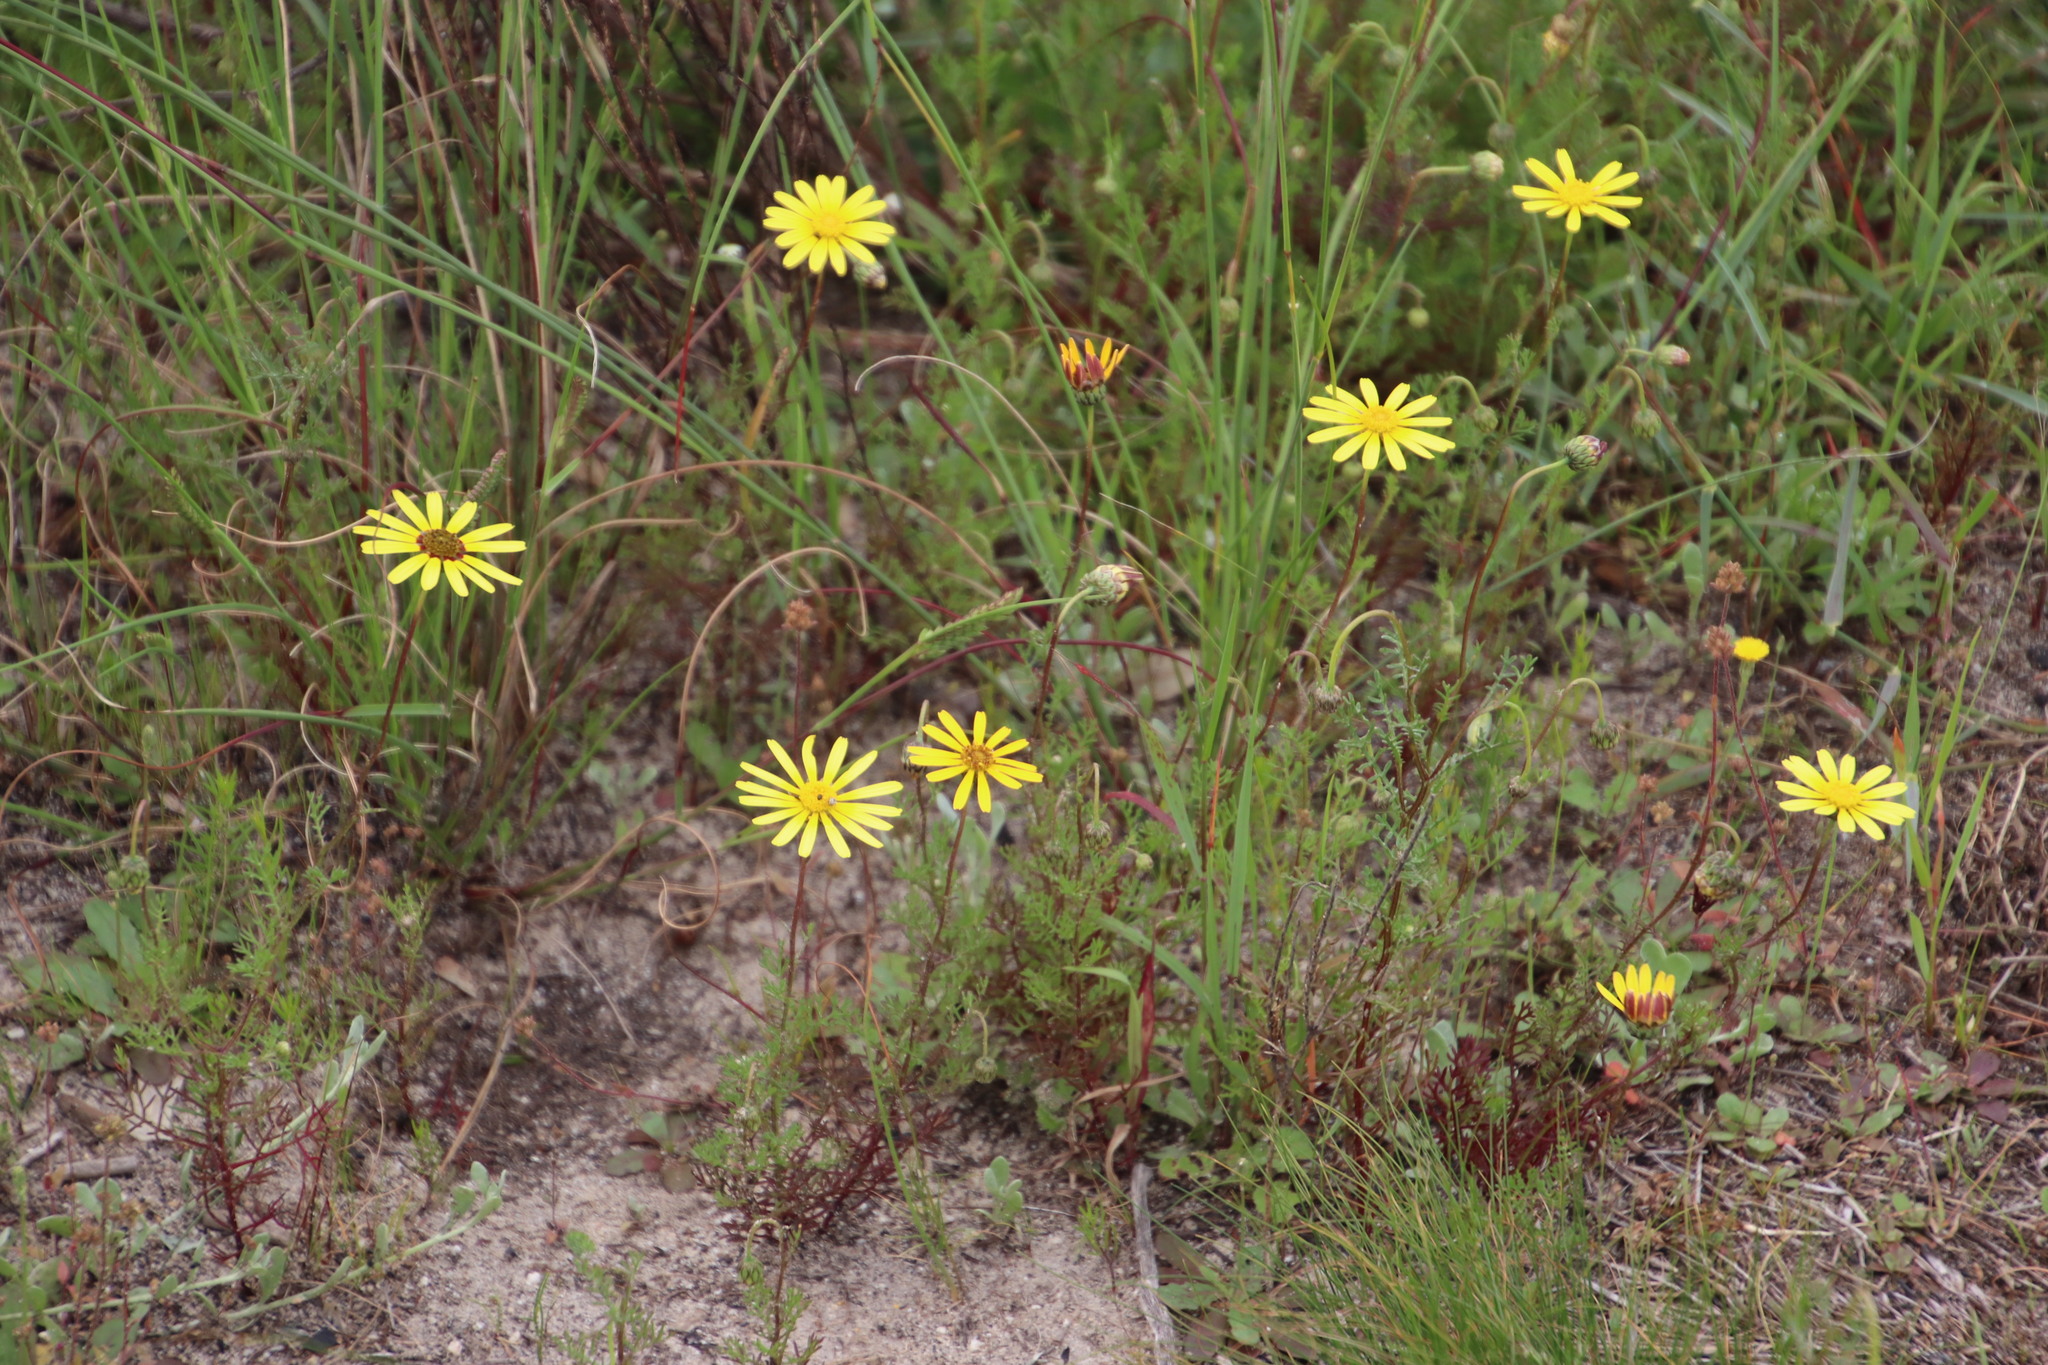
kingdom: Plantae
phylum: Tracheophyta
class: Magnoliopsida
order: Asterales
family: Asteraceae
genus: Ursinia
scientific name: Ursinia anthemoides
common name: Ursinia
